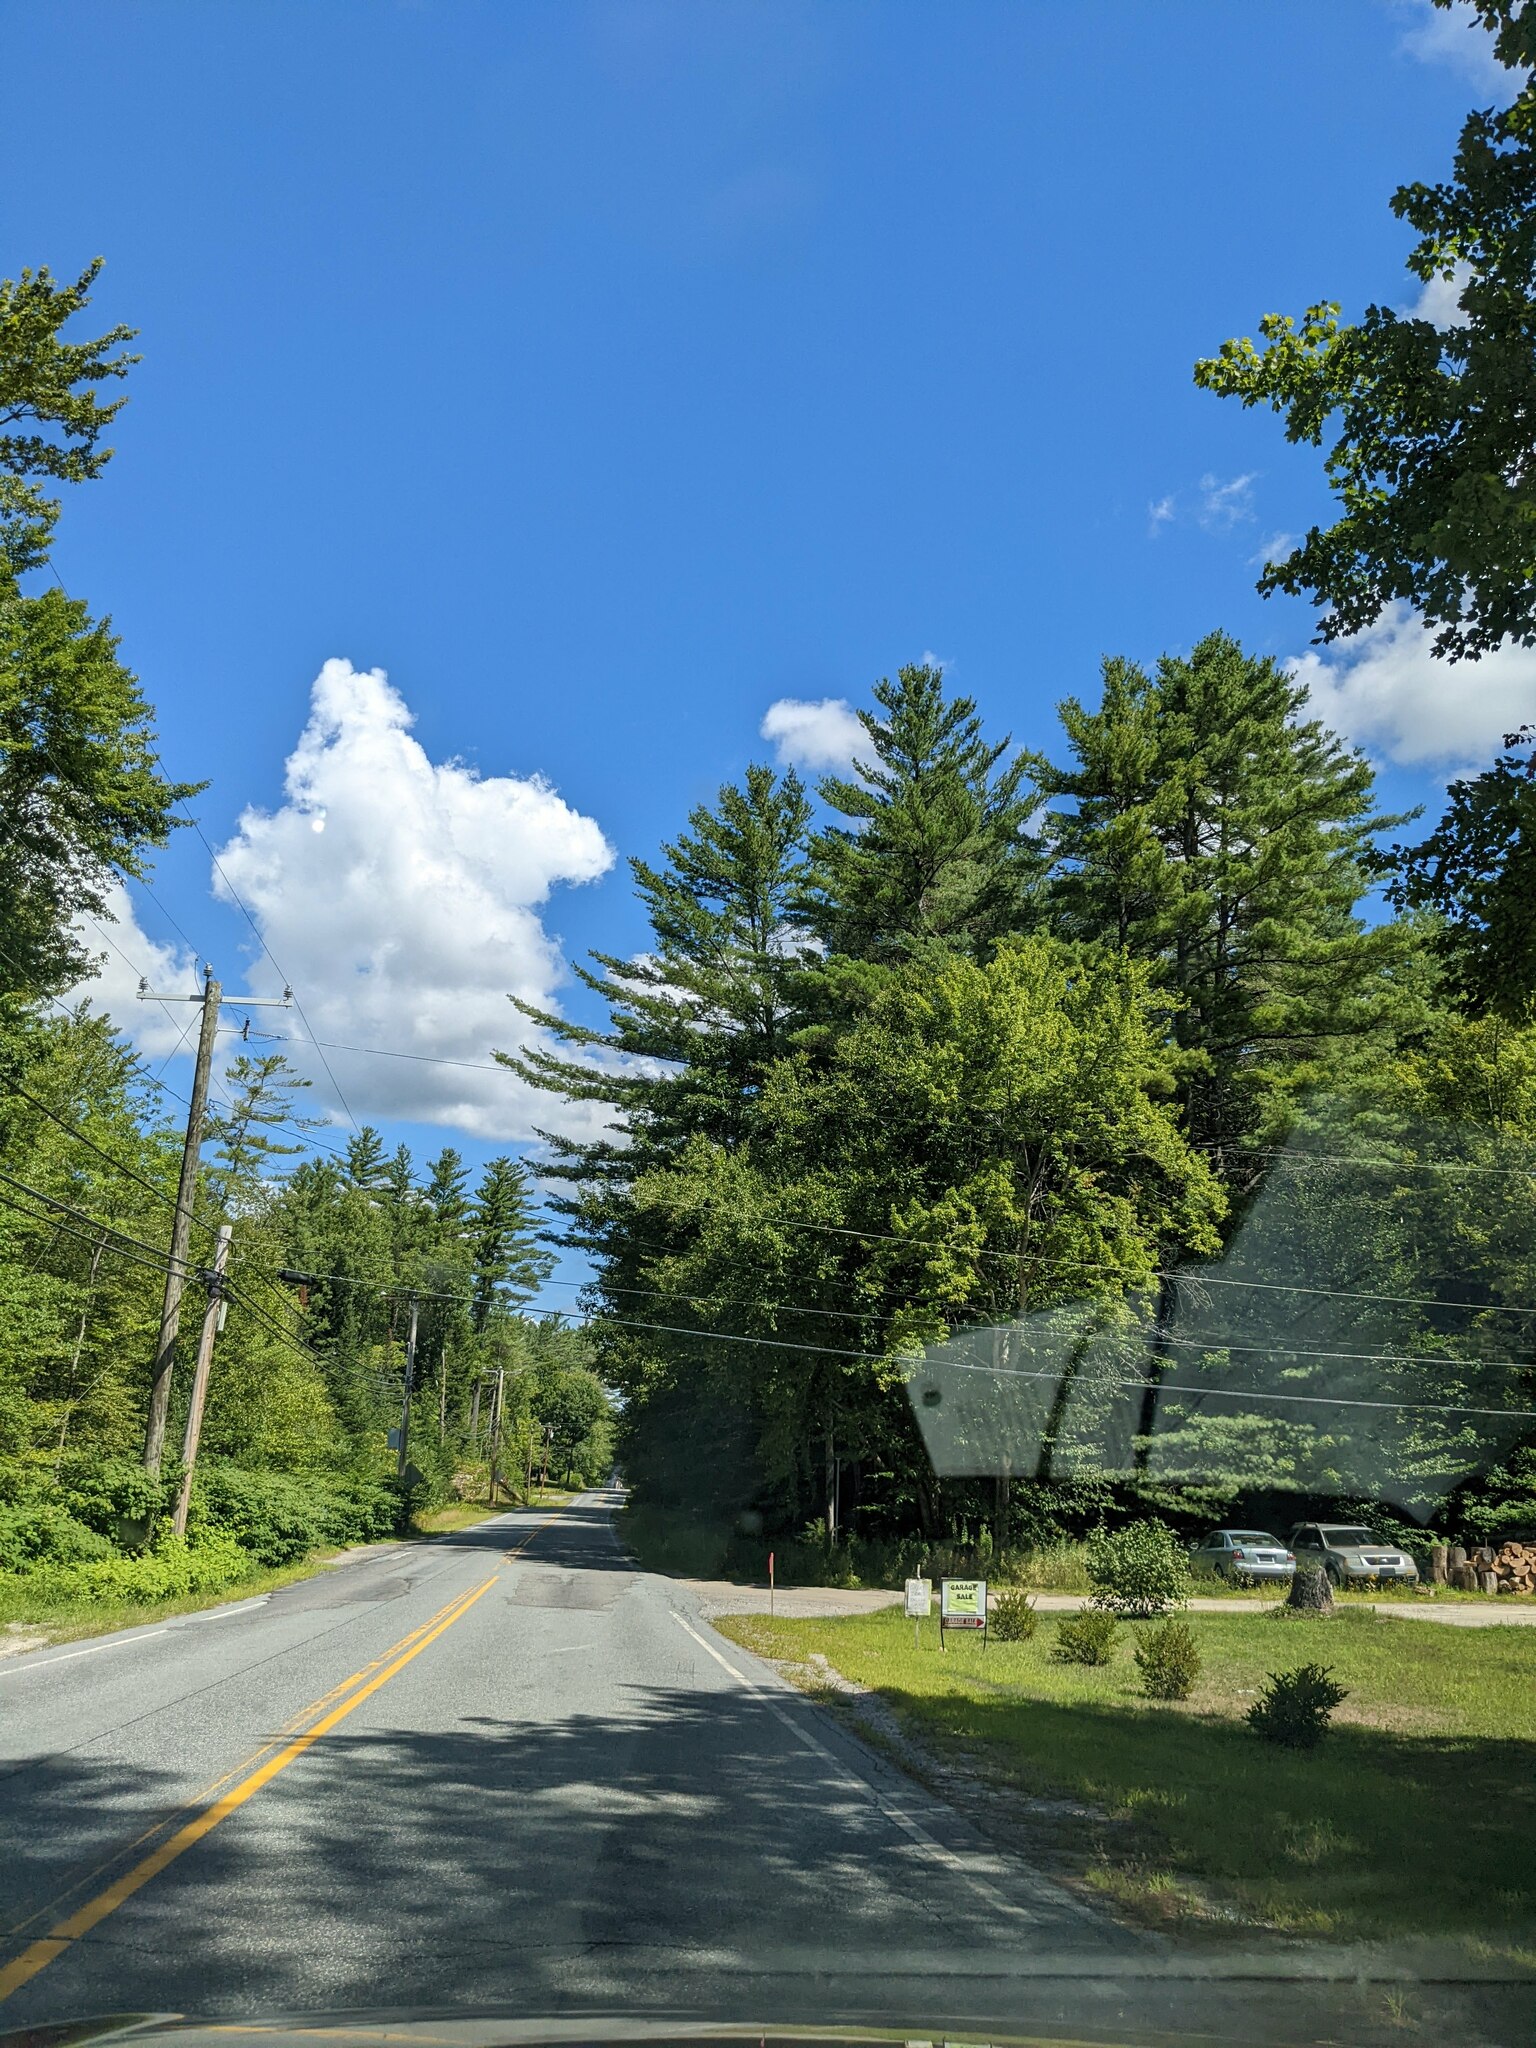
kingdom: Plantae
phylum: Tracheophyta
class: Pinopsida
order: Pinales
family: Pinaceae
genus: Pinus
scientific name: Pinus strobus
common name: Weymouth pine
